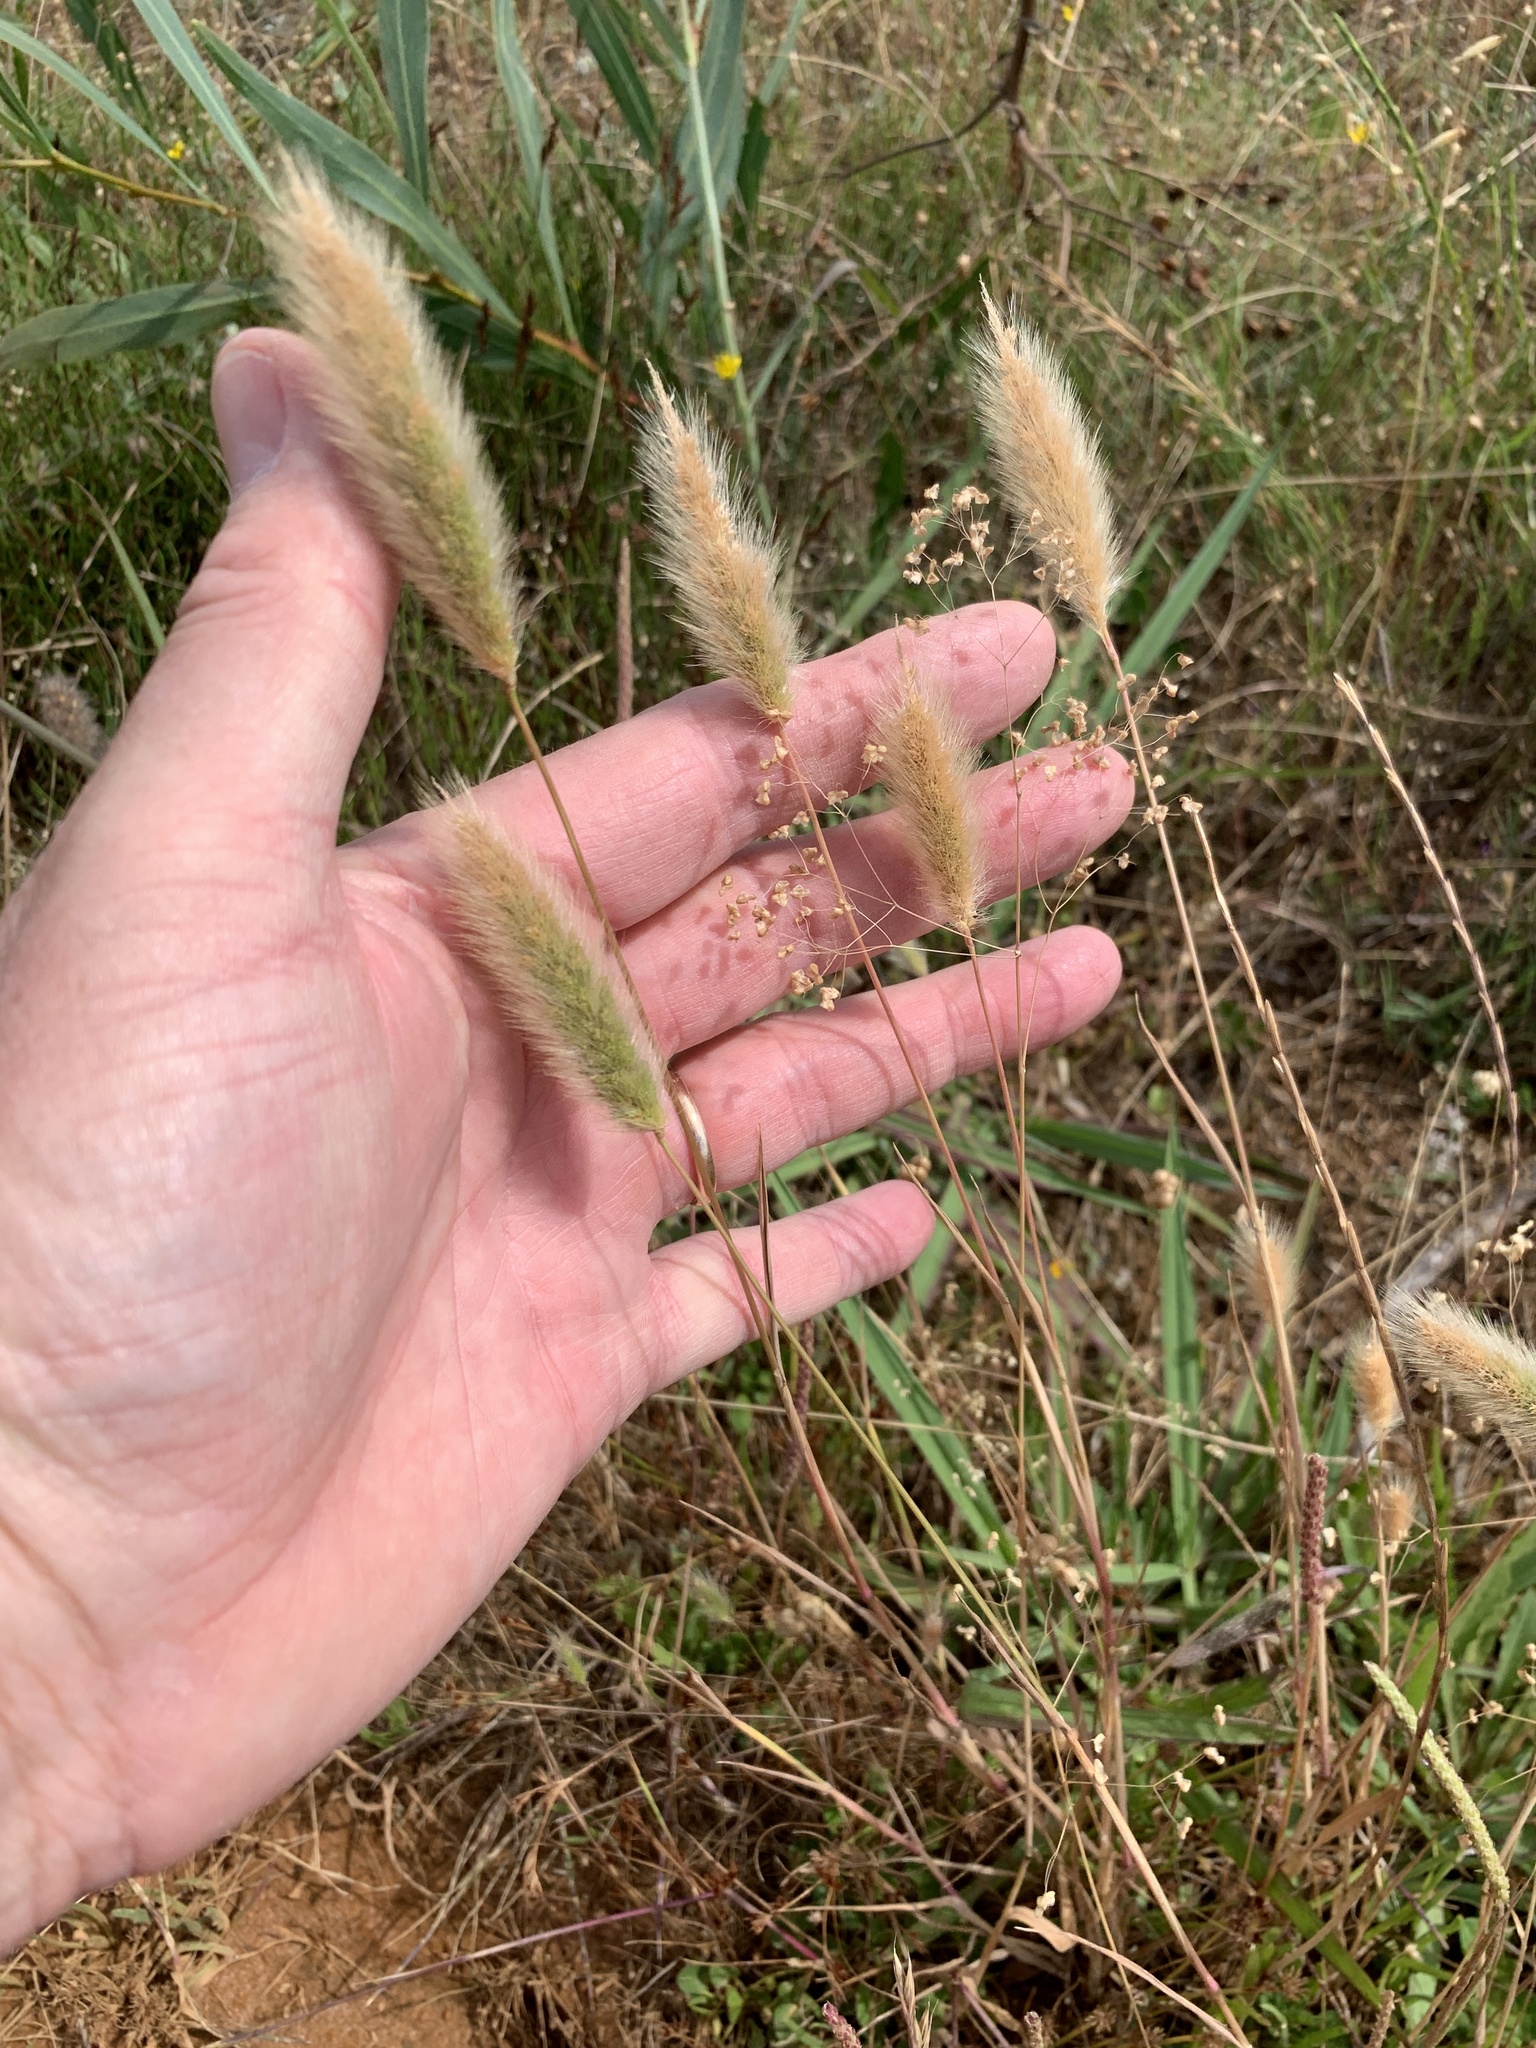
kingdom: Plantae
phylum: Tracheophyta
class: Liliopsida
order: Poales
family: Poaceae
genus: Polypogon
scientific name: Polypogon monspeliensis
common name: Annual rabbitsfoot grass
